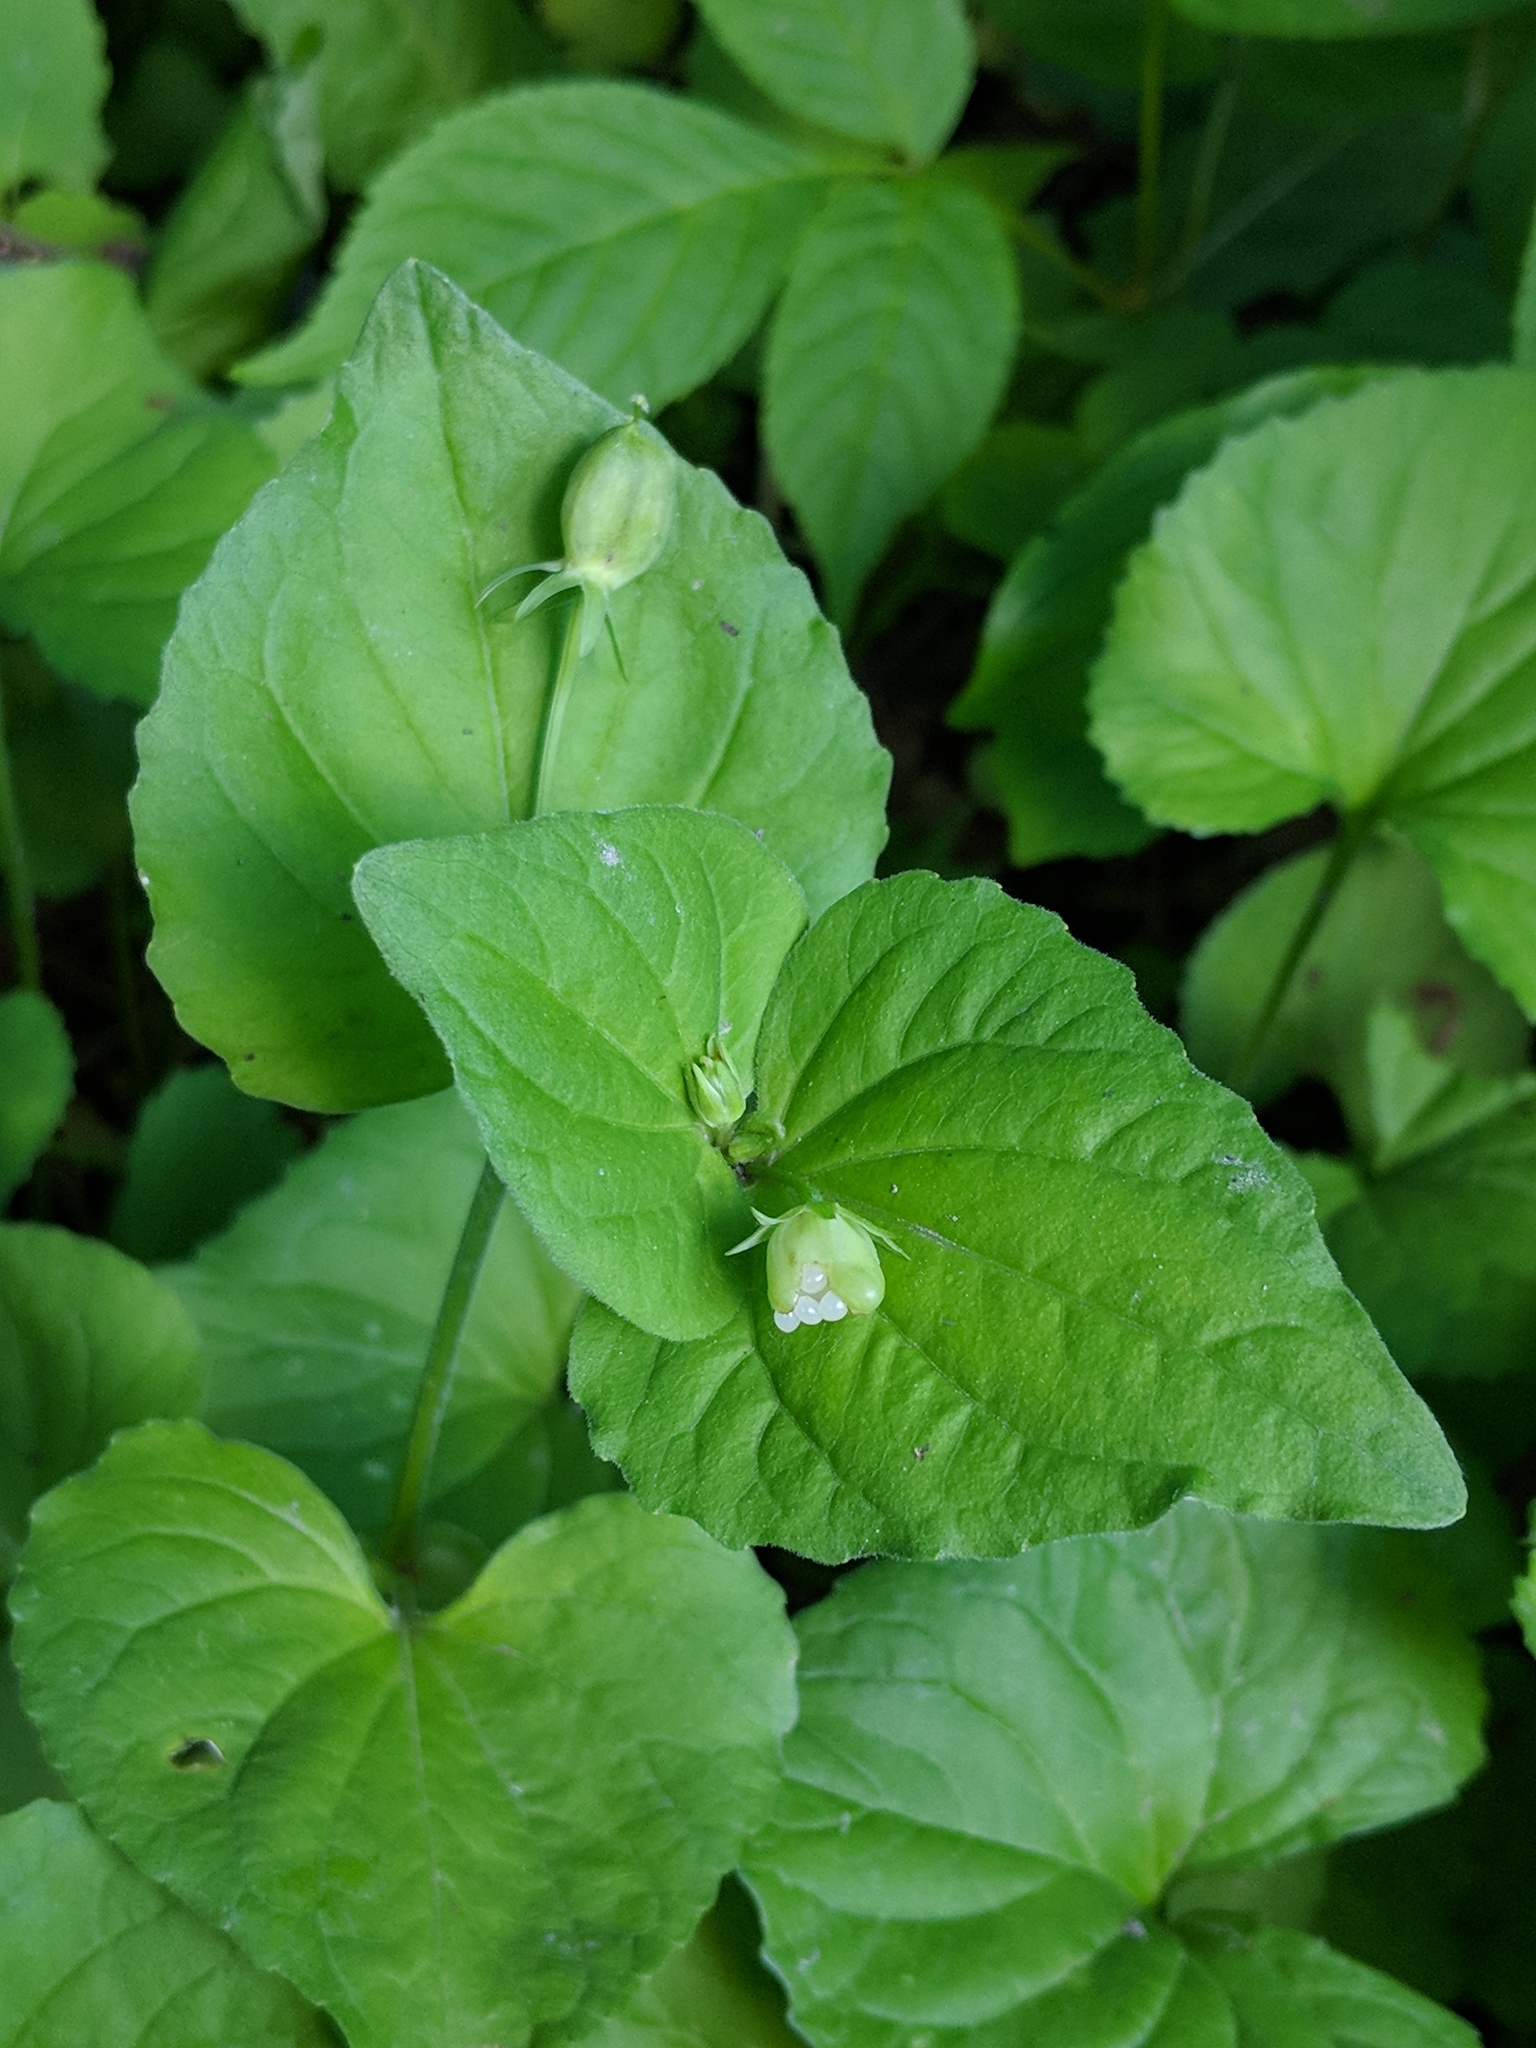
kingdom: Plantae
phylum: Tracheophyta
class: Magnoliopsida
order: Malpighiales
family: Violaceae
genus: Viola
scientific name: Viola eriocarpa
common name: Smooth yellow violet
